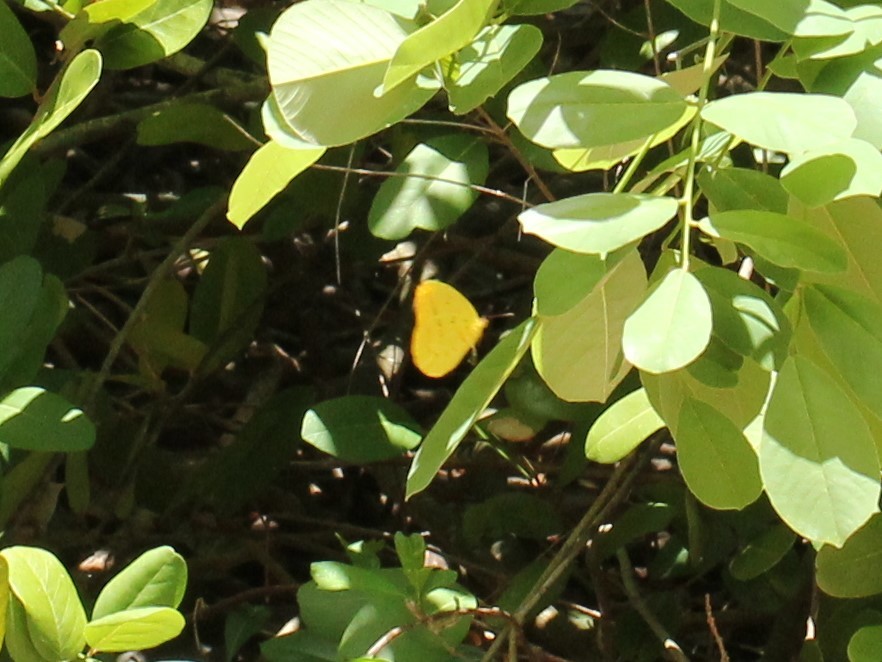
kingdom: Animalia
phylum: Arthropoda
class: Insecta
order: Lepidoptera
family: Pieridae
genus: Phoebis
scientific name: Phoebis agarithe
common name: Large orange sulphur
